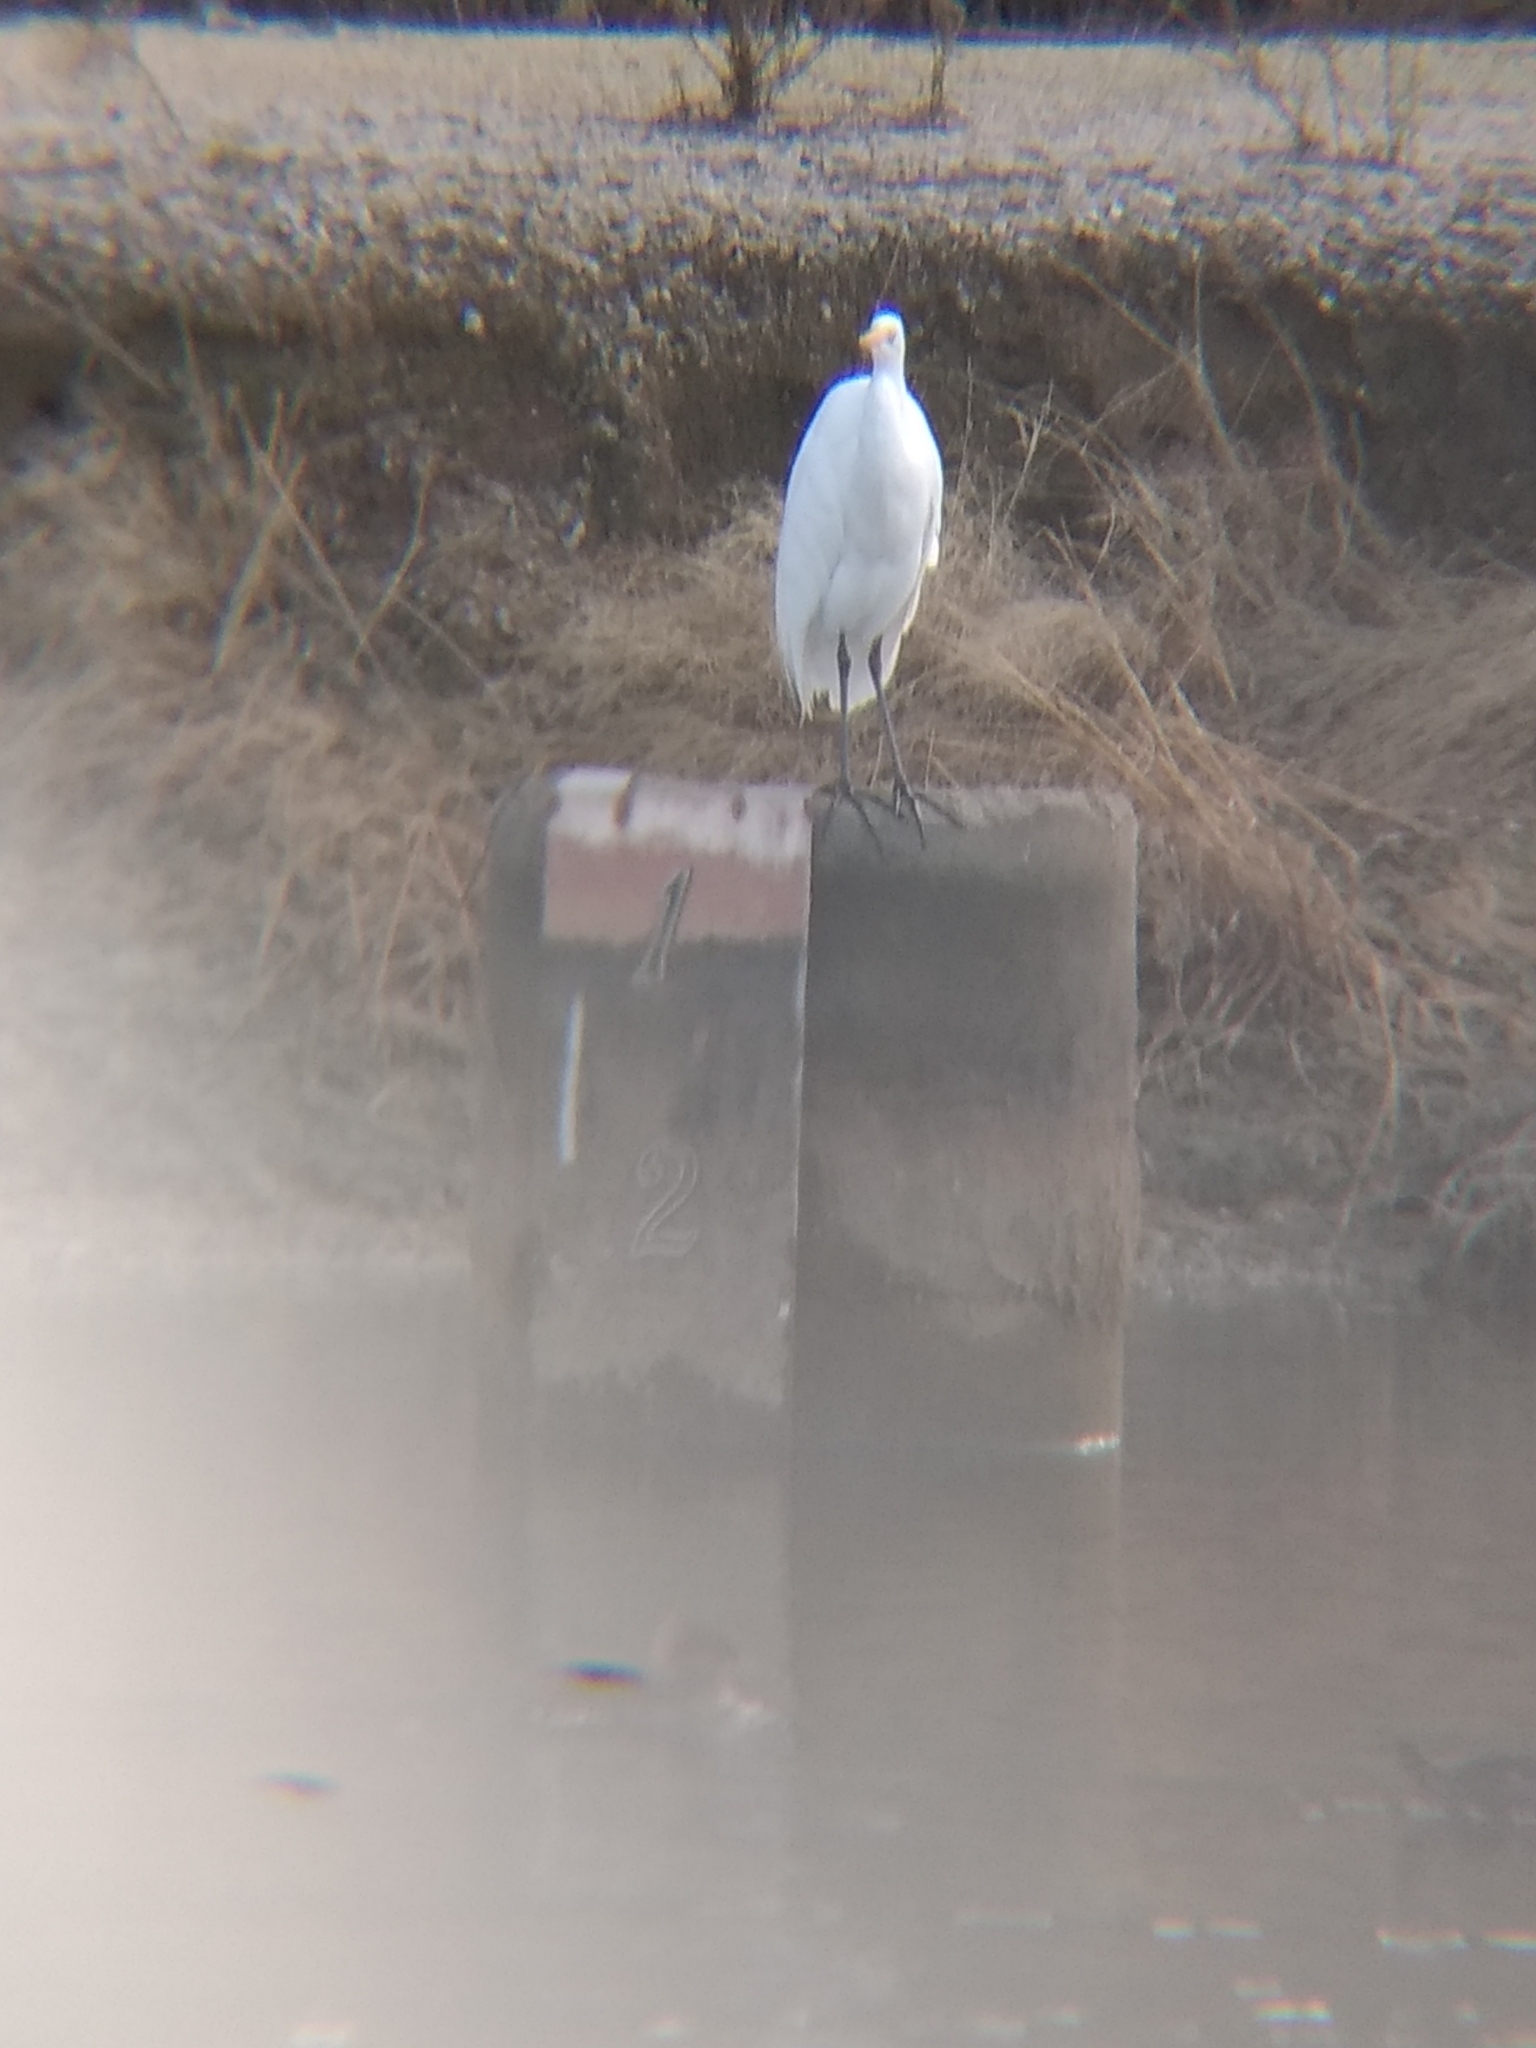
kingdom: Animalia
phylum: Chordata
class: Aves
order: Pelecaniformes
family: Ardeidae
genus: Ardea
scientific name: Ardea alba
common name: Great egret
